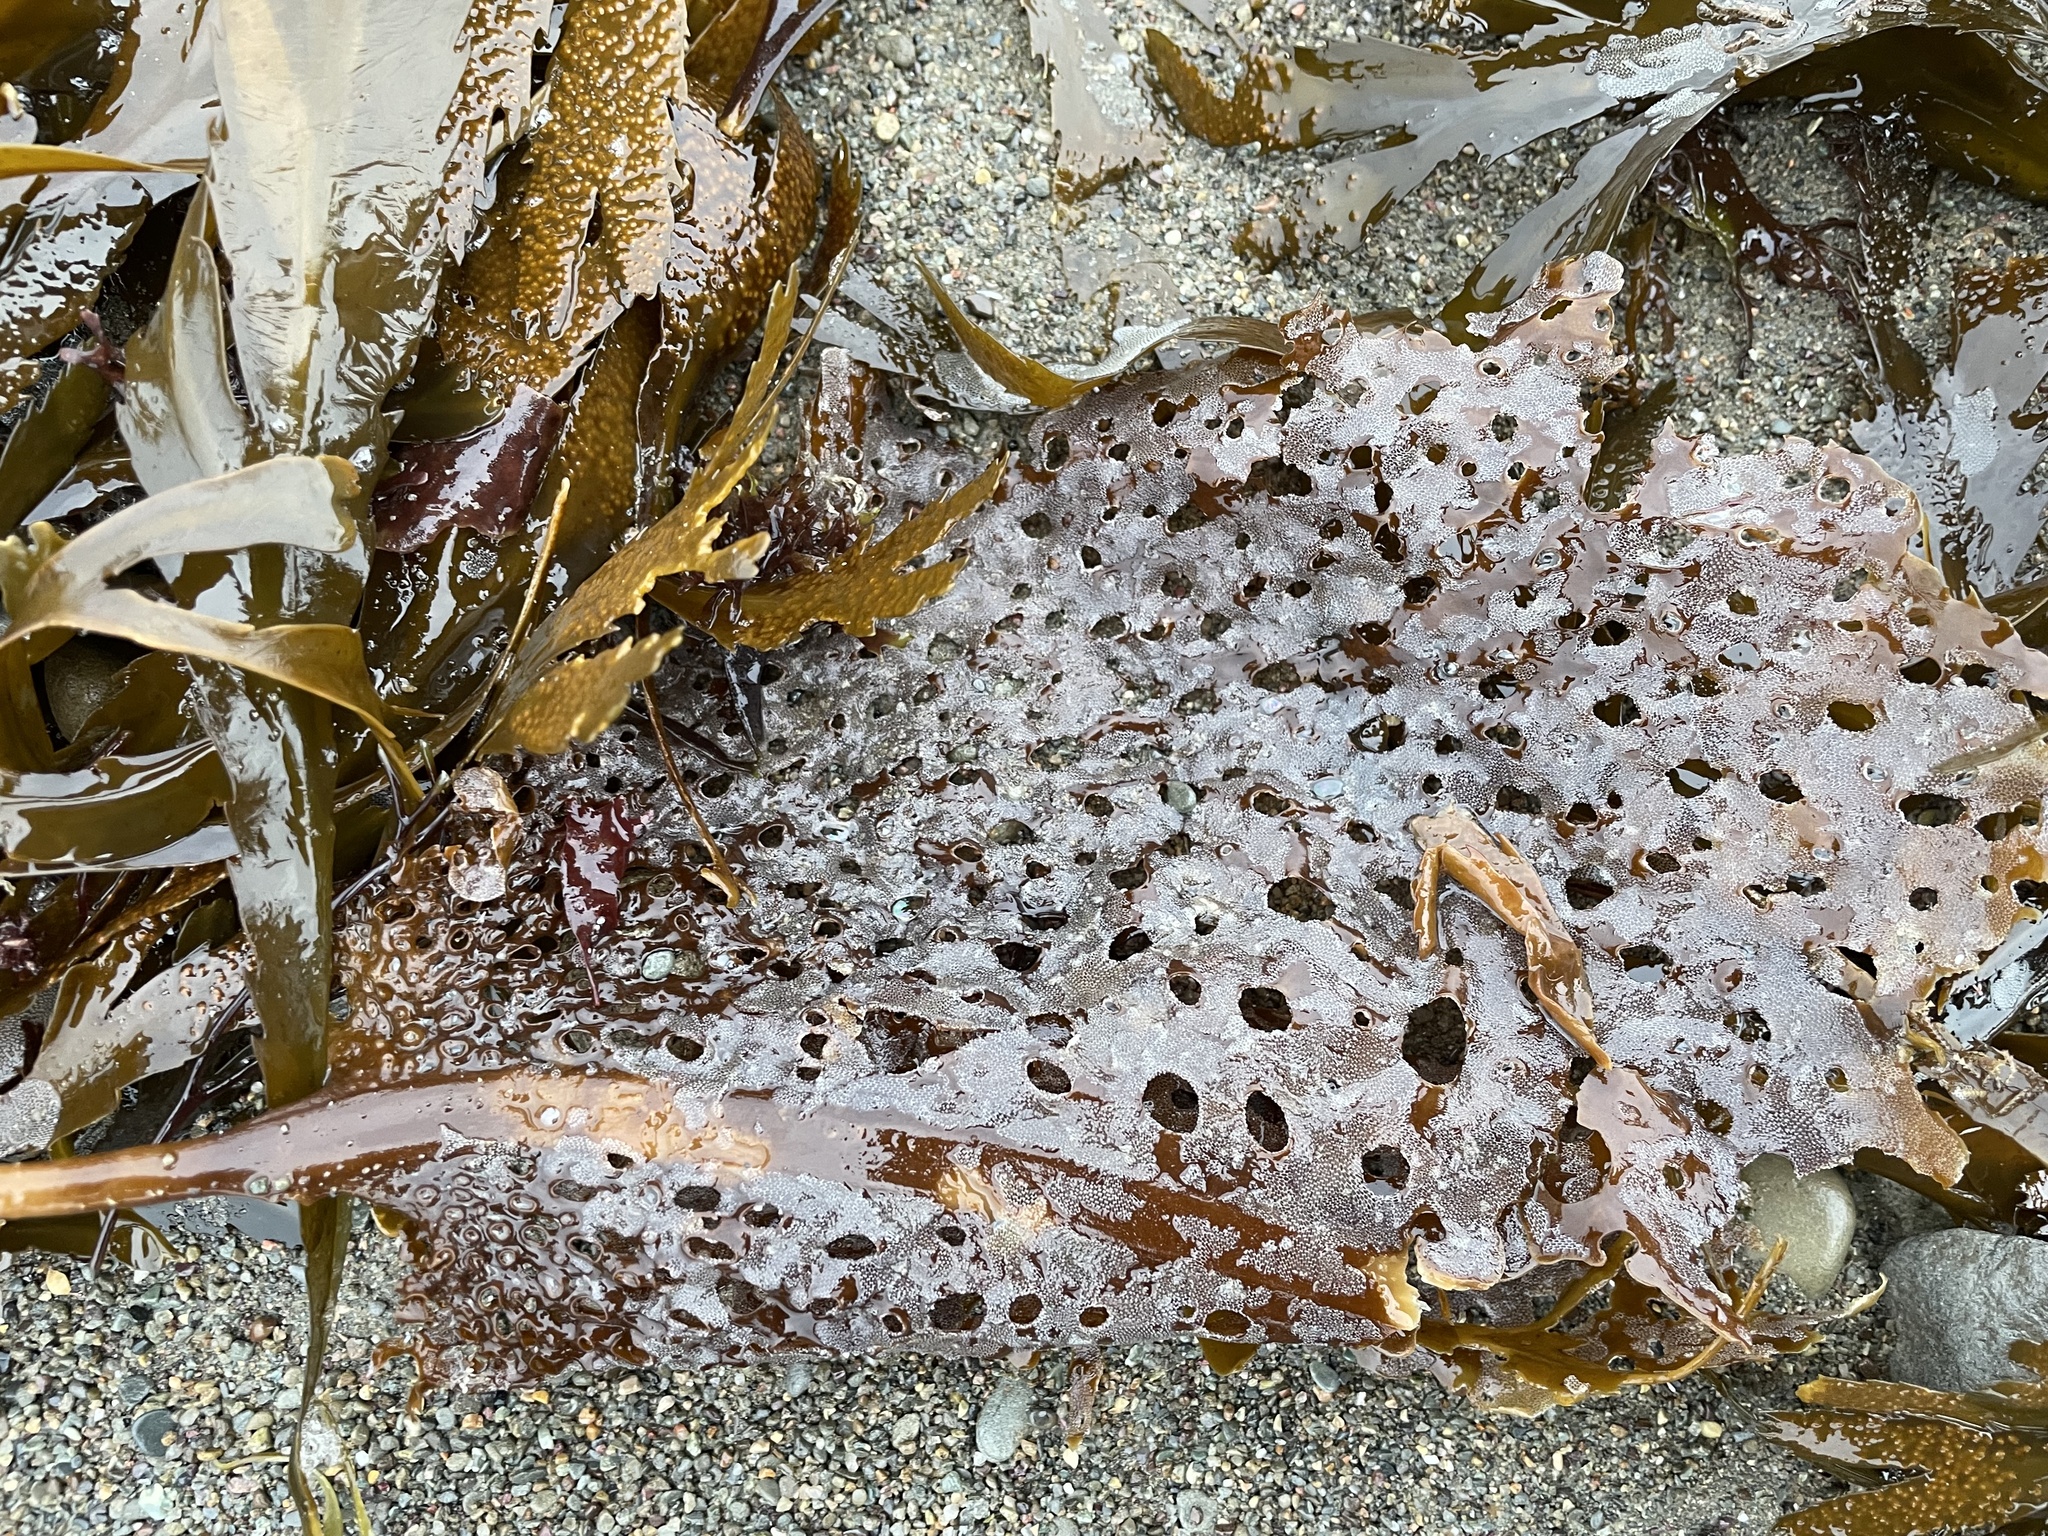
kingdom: Chromista
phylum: Ochrophyta
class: Phaeophyceae
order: Laminariales
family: Costariaceae
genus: Agarum
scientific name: Agarum clathratum
